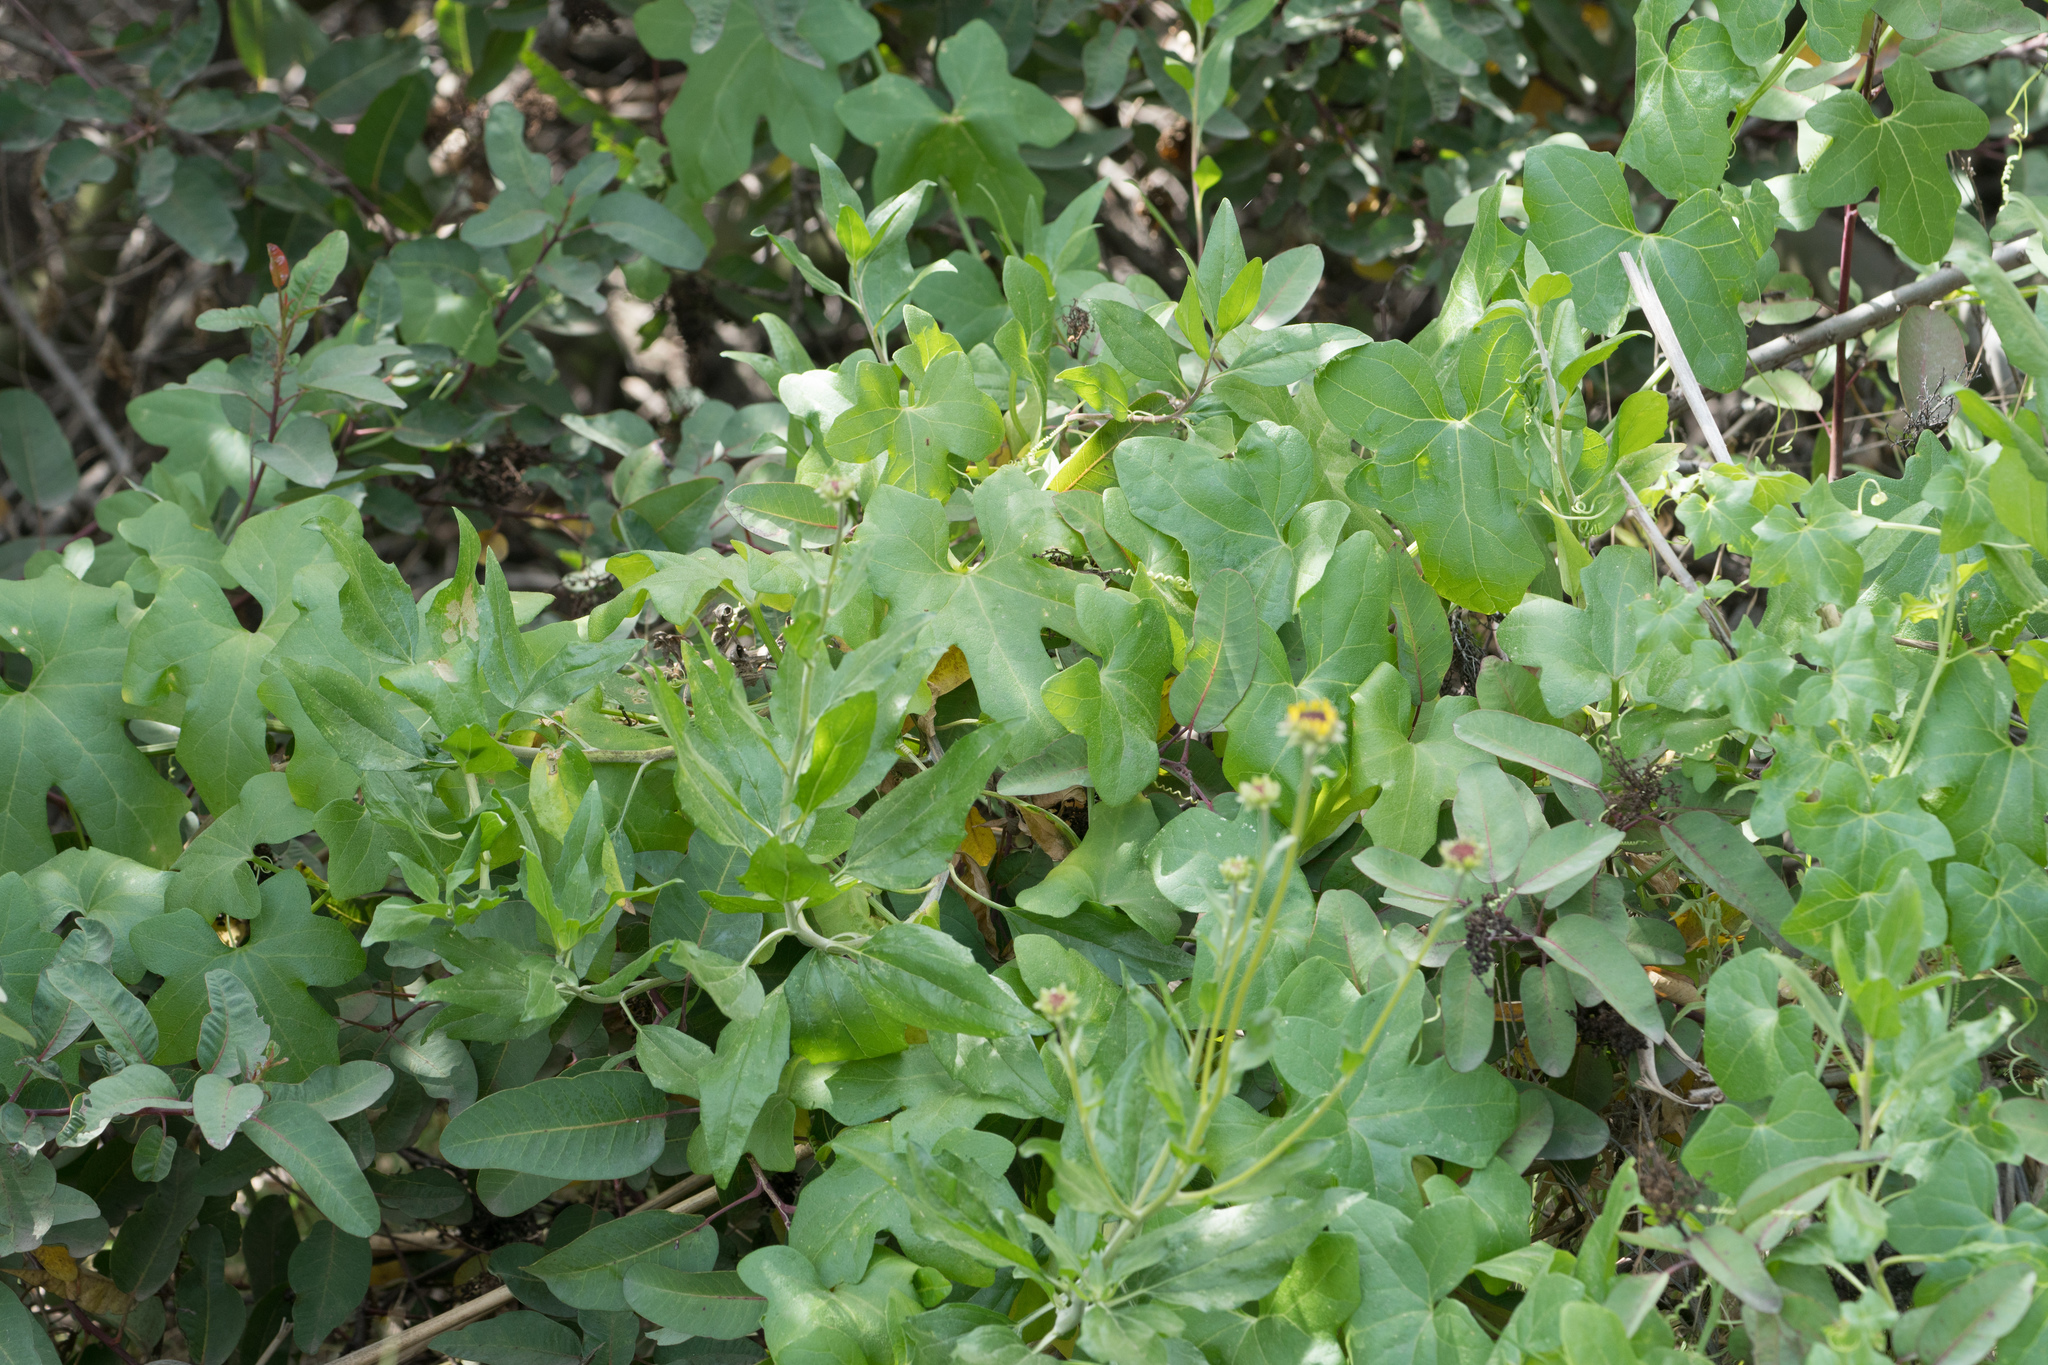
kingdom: Plantae
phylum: Tracheophyta
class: Magnoliopsida
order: Cucurbitales
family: Cucurbitaceae
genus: Marah
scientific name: Marah macrocarpa
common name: Cucamonga manroot
